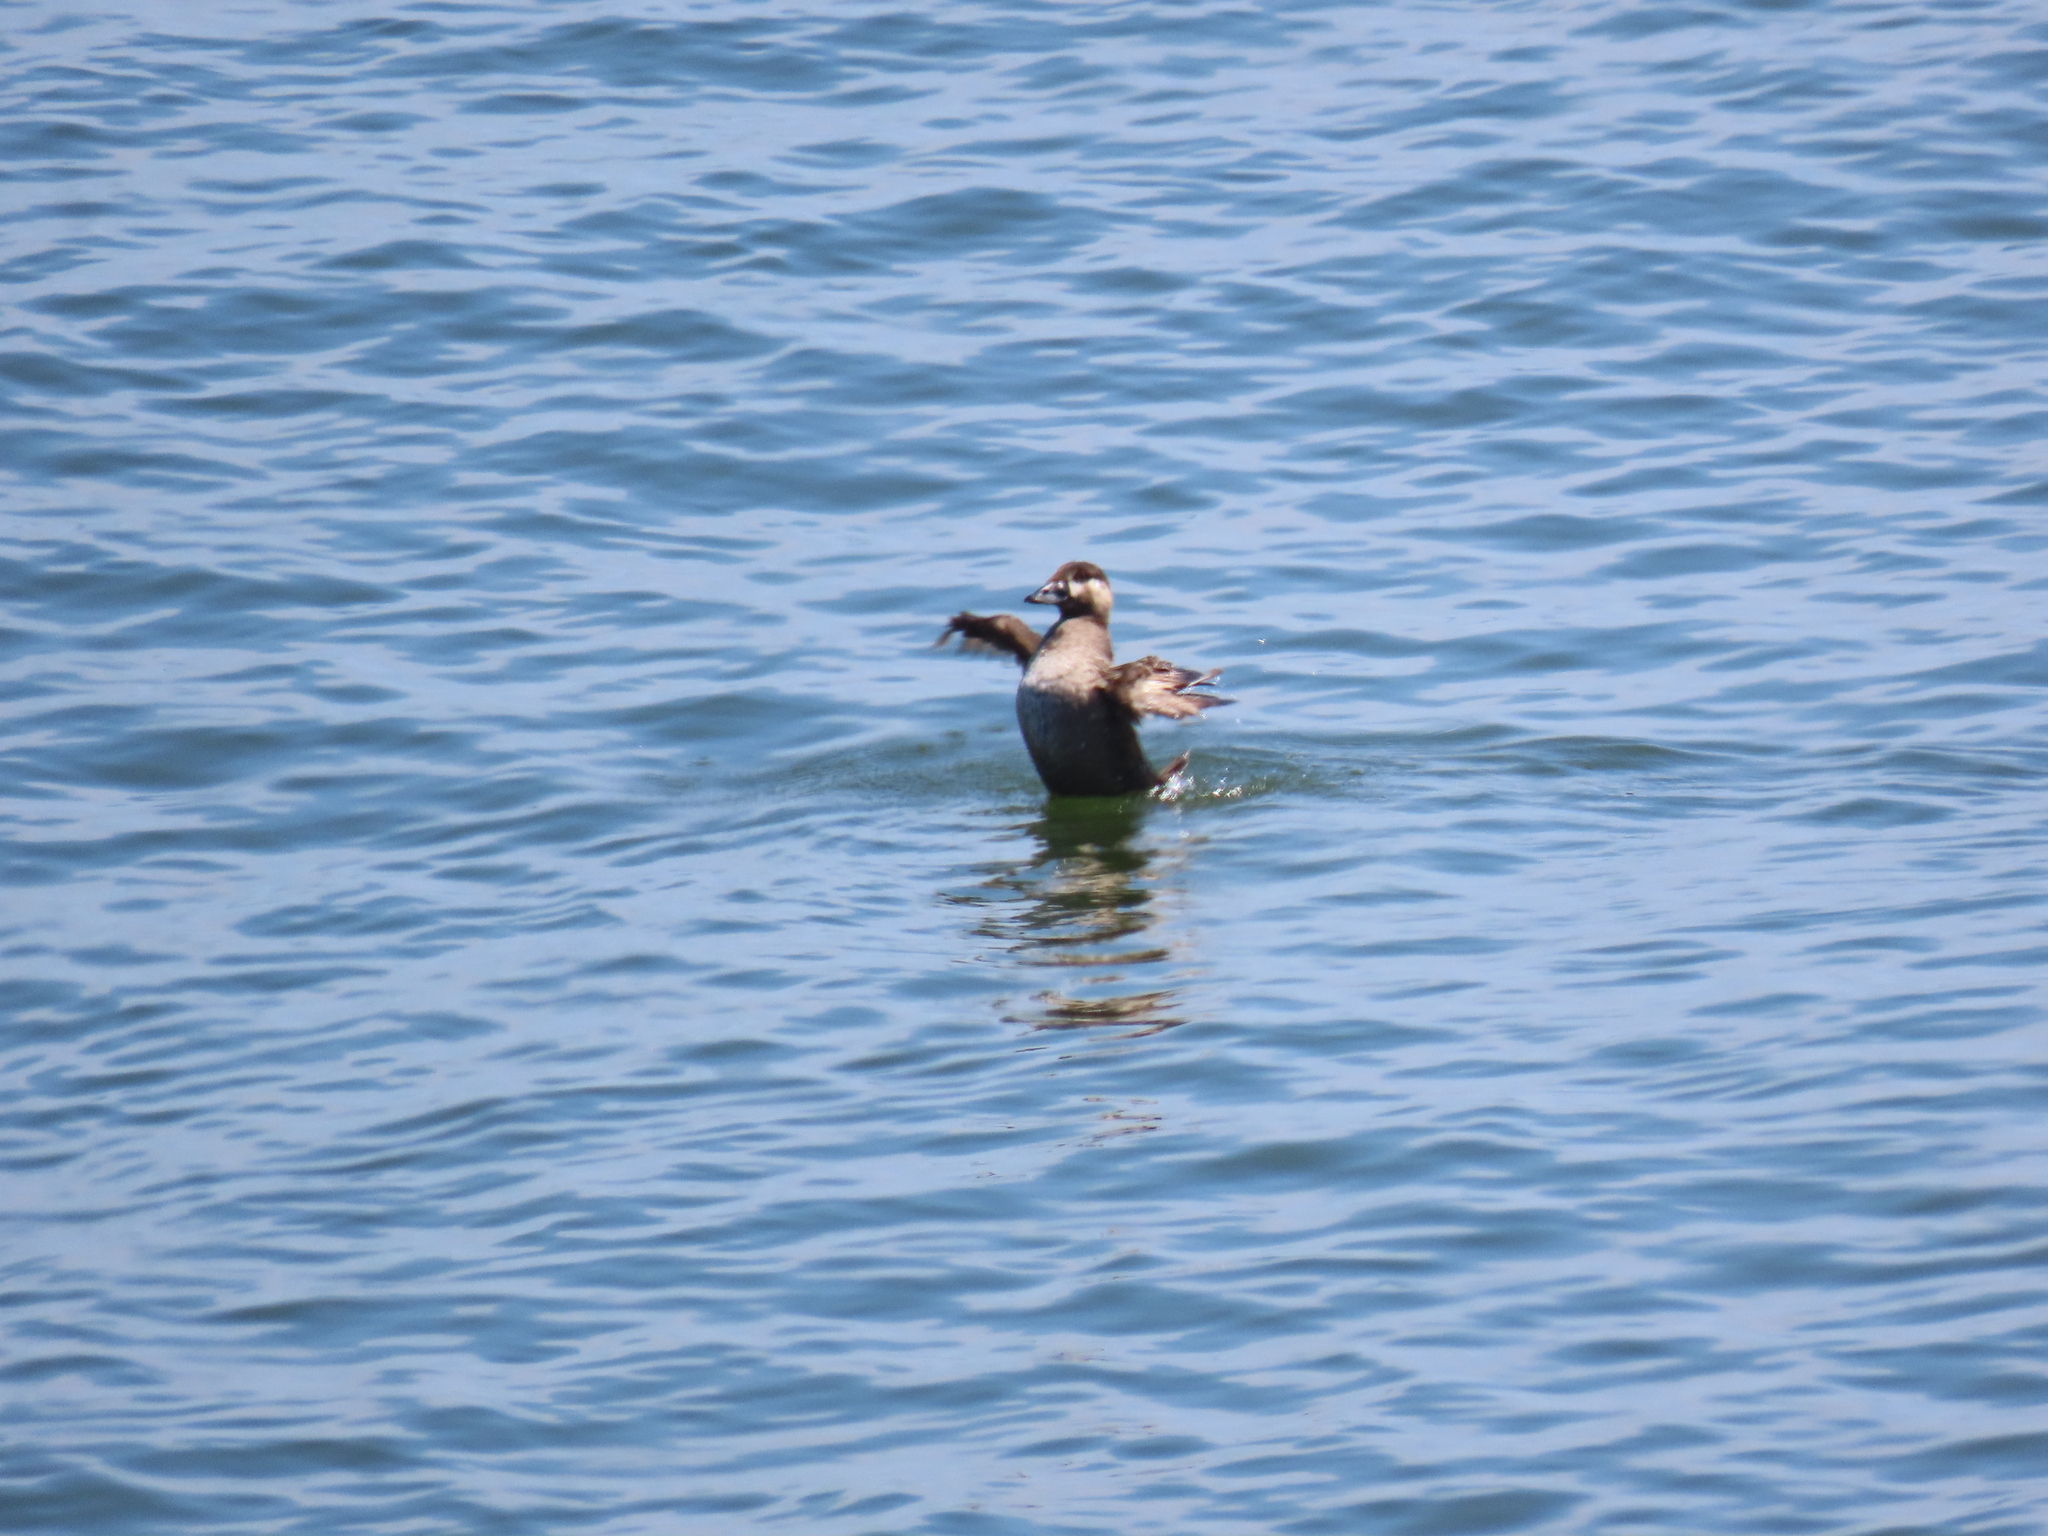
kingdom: Animalia
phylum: Chordata
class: Aves
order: Anseriformes
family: Anatidae
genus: Melanitta
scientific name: Melanitta perspicillata
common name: Surf scoter
